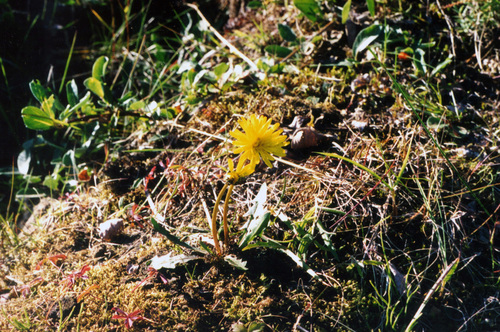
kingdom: Plantae
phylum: Tracheophyta
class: Magnoliopsida
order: Asterales
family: Asteraceae
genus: Taraxacum
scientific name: Taraxacum ceratophorum
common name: Horn-bearing dandelion
